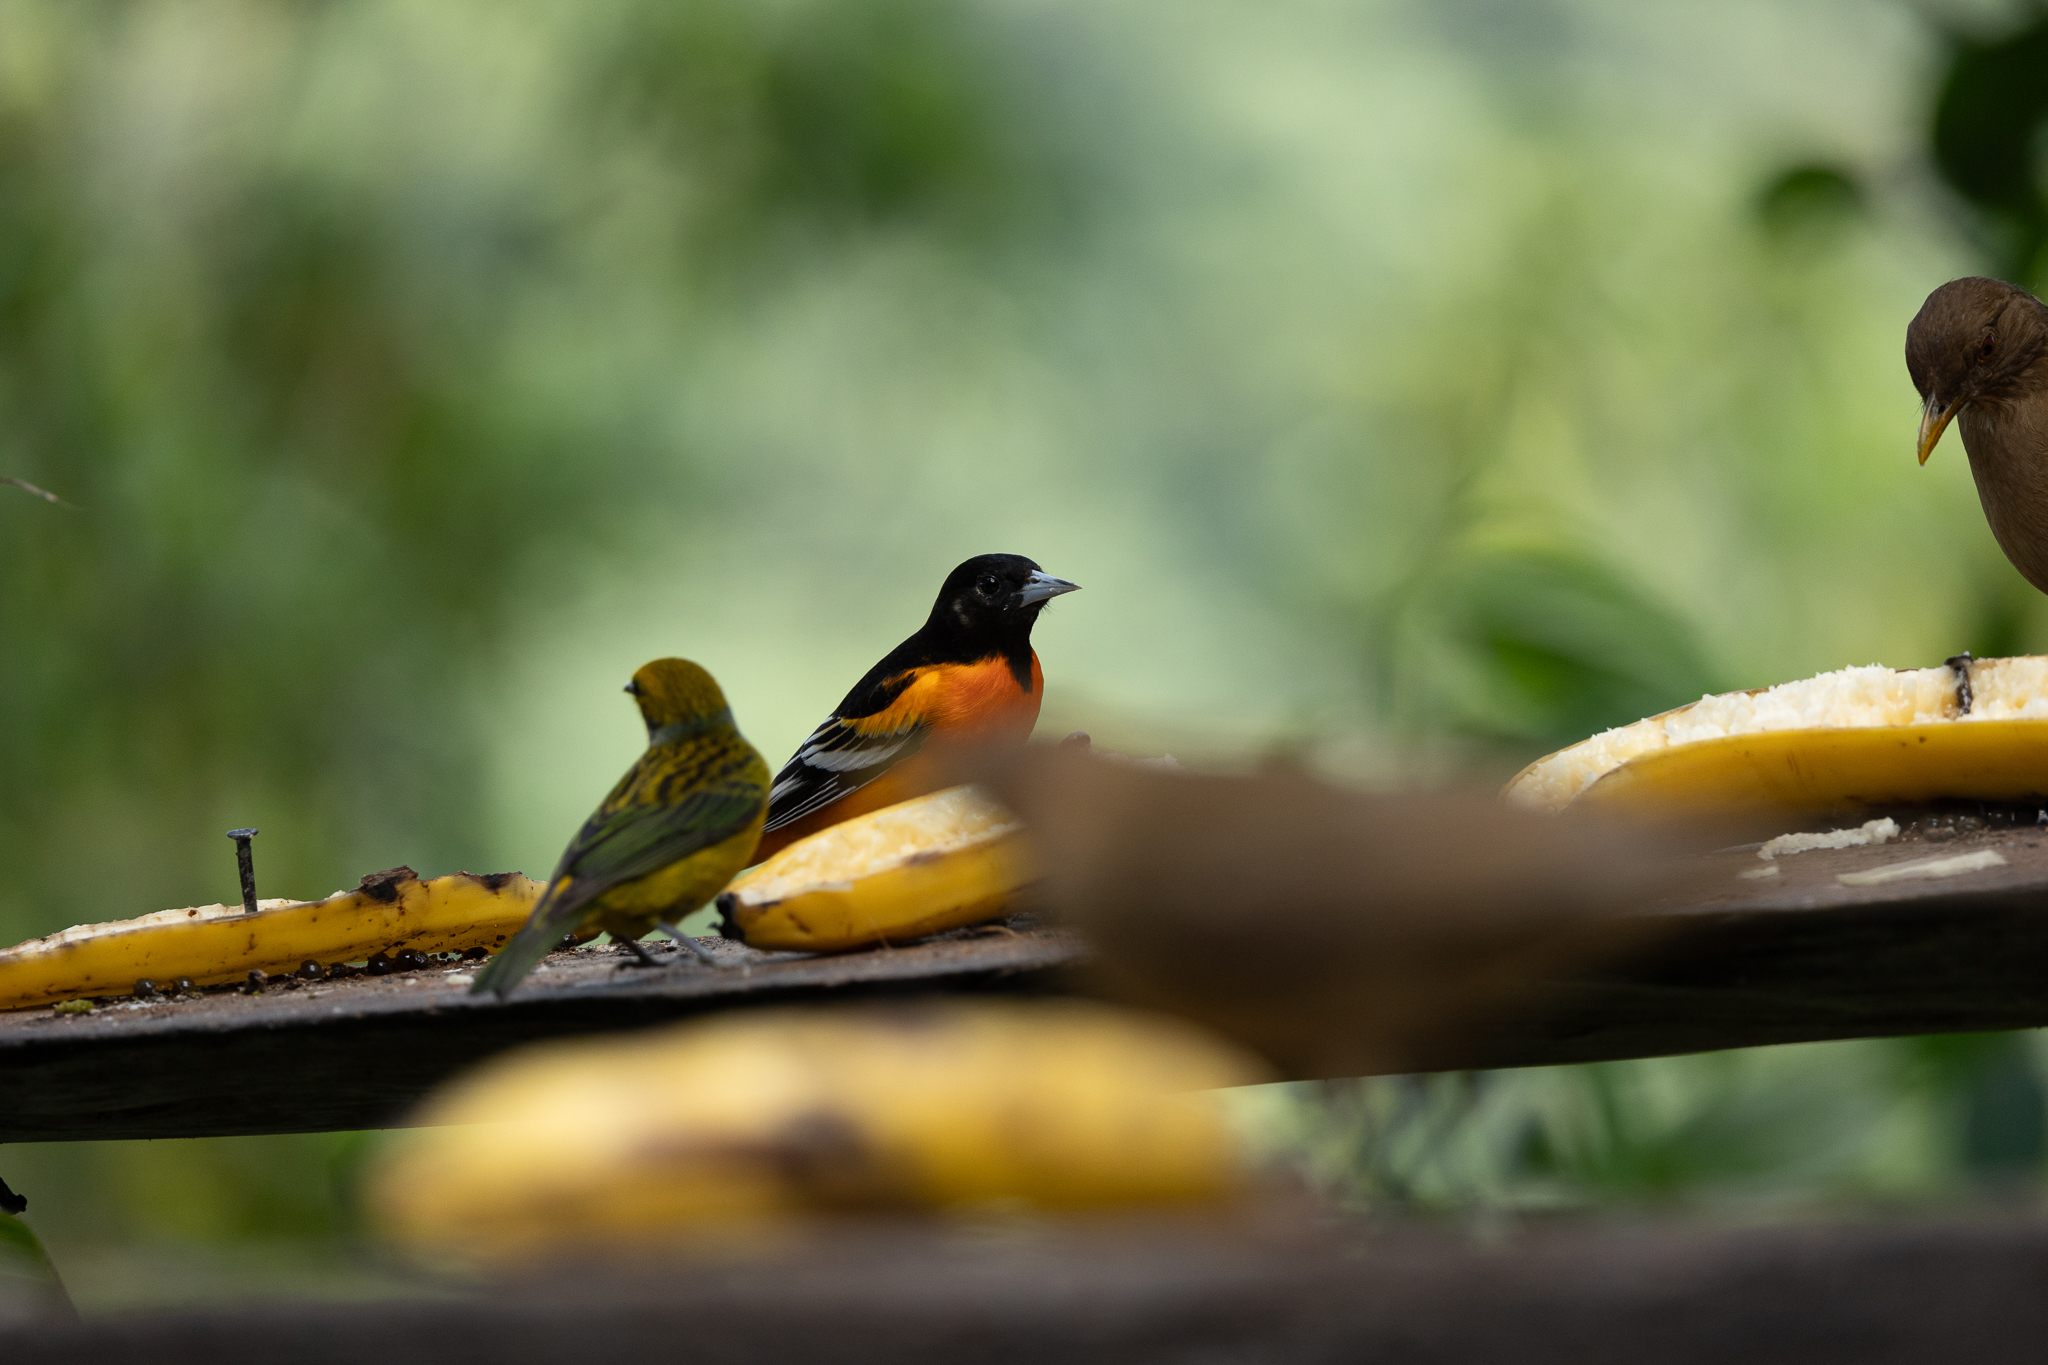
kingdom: Animalia
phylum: Chordata
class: Aves
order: Passeriformes
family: Icteridae
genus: Icterus
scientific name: Icterus galbula
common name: Baltimore oriole
